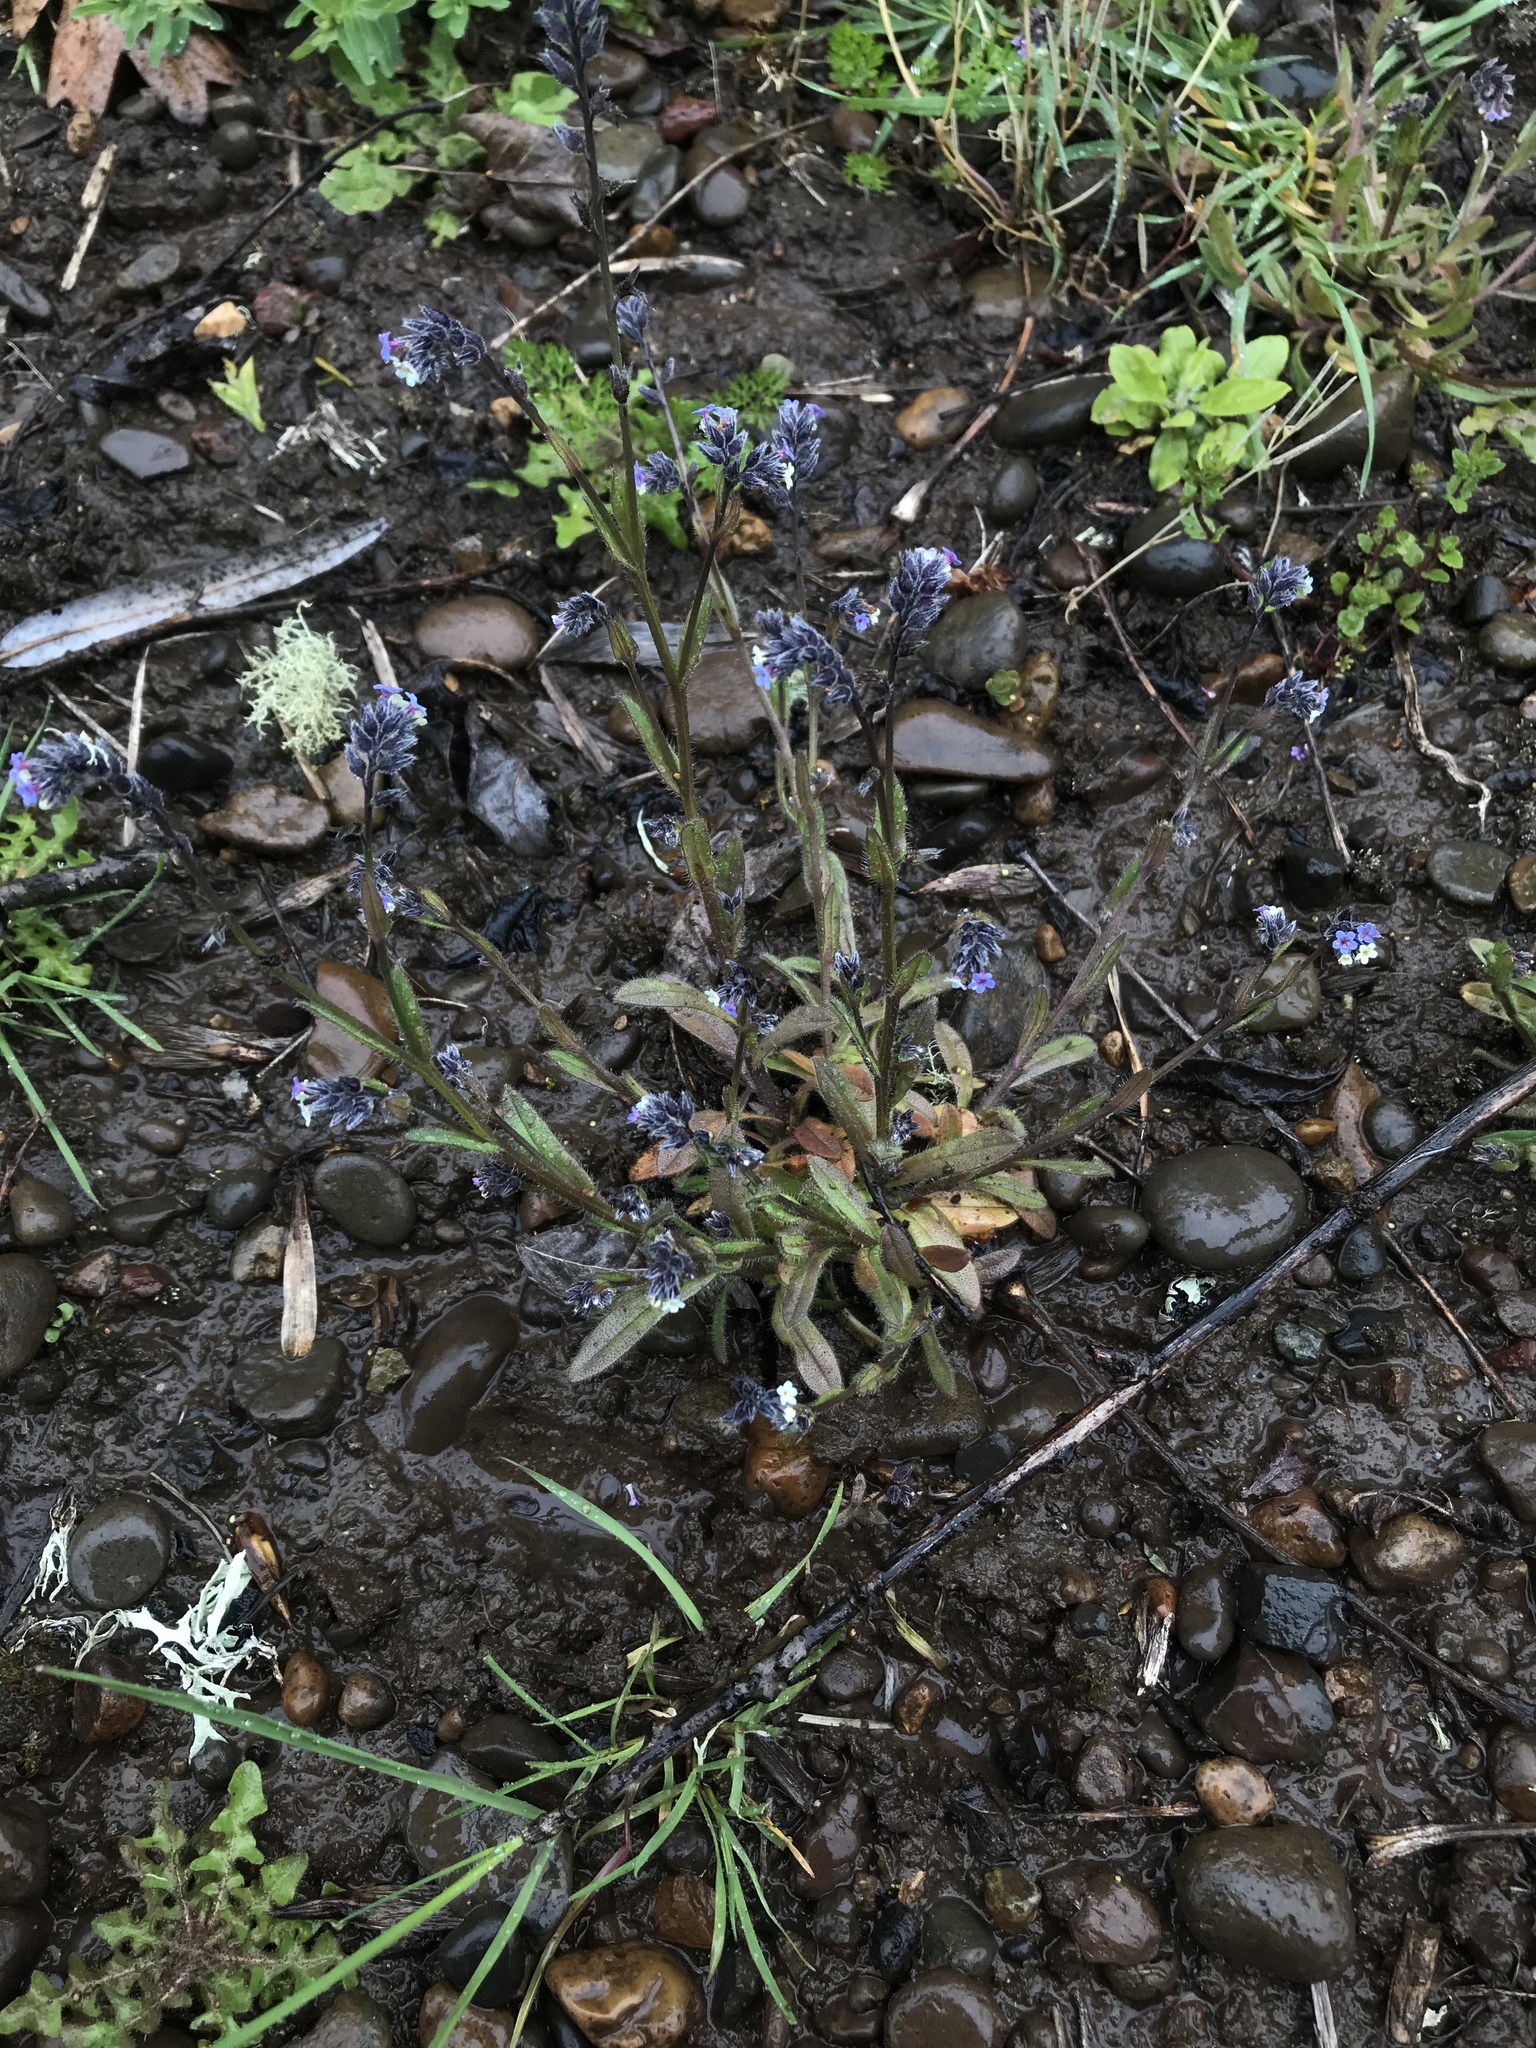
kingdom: Plantae
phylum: Tracheophyta
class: Magnoliopsida
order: Boraginales
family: Boraginaceae
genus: Myosotis
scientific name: Myosotis discolor
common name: Changing forget-me-not
